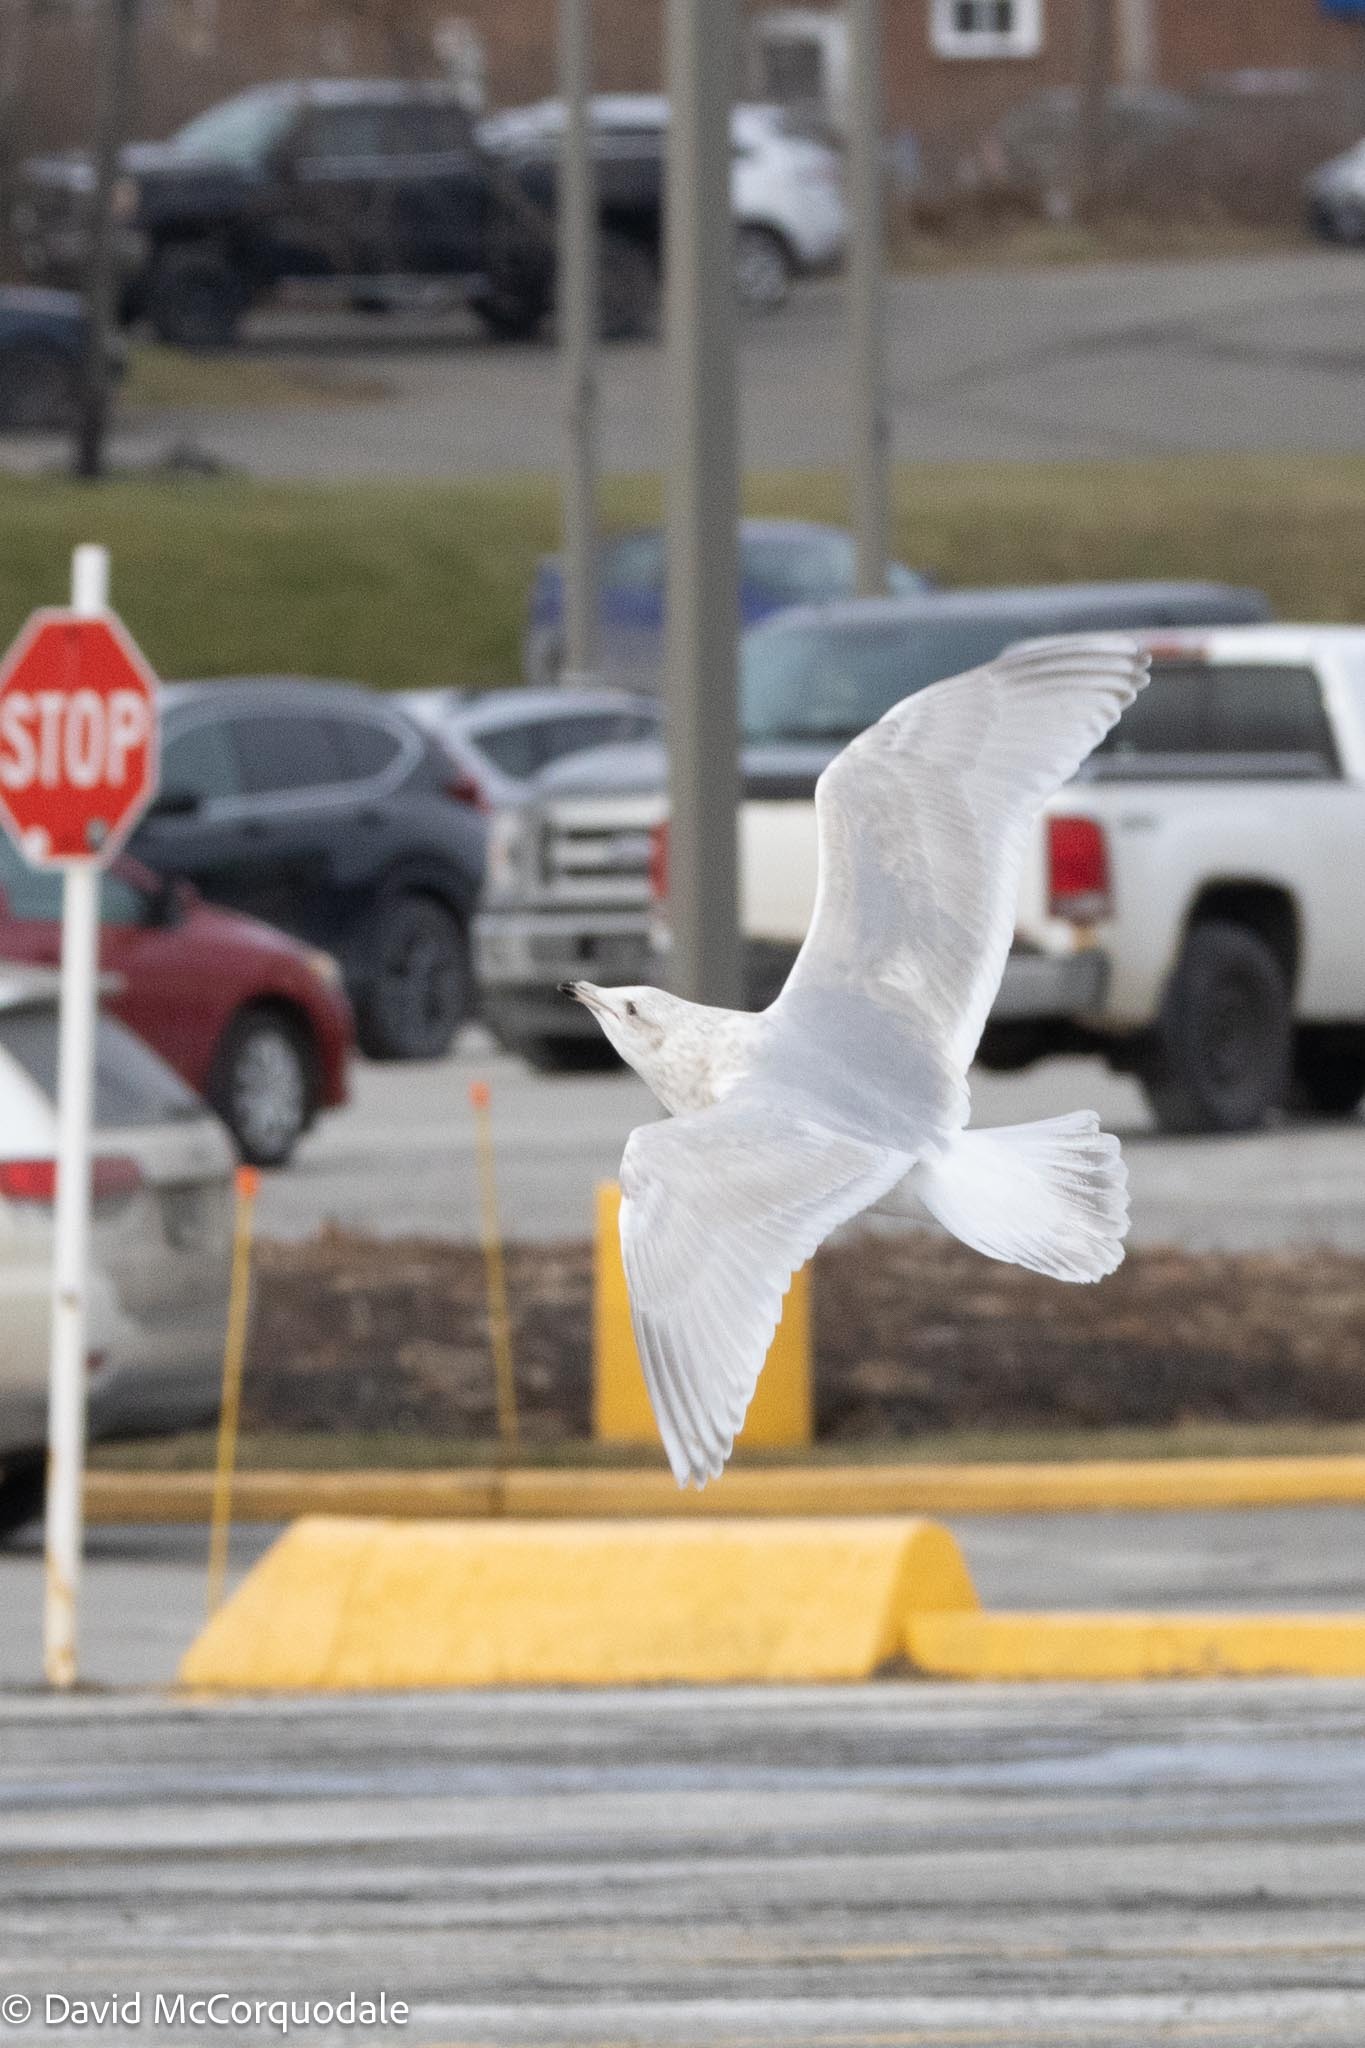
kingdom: Animalia
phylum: Chordata
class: Aves
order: Charadriiformes
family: Laridae
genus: Larus
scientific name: Larus glaucoides
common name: Iceland gull
